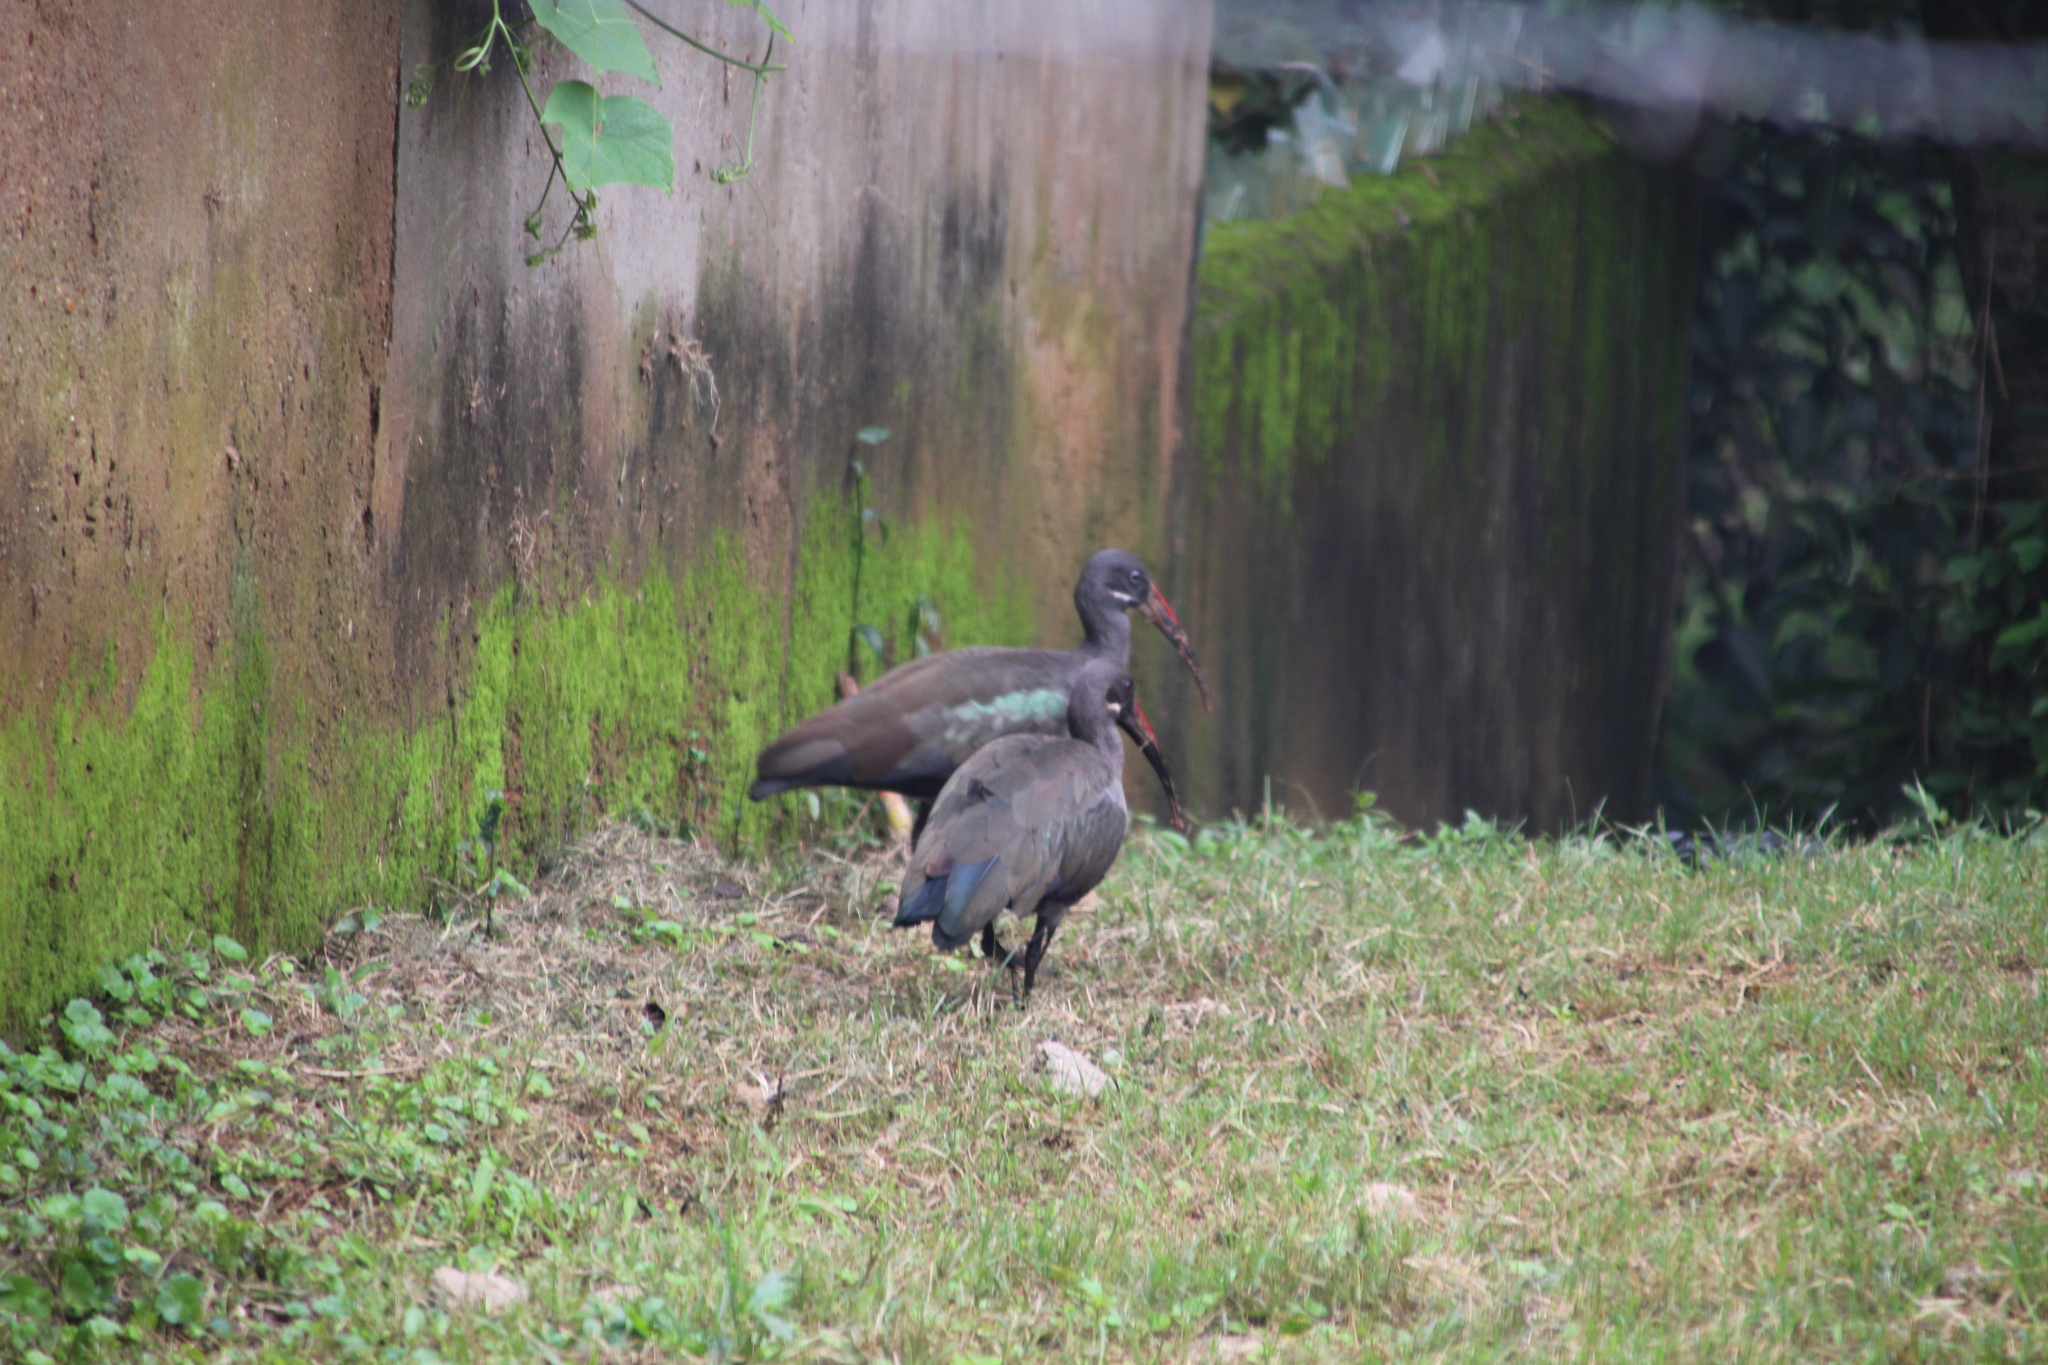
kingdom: Animalia
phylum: Chordata
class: Aves
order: Pelecaniformes
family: Threskiornithidae
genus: Bostrychia
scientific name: Bostrychia hagedash
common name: Hadada ibis
